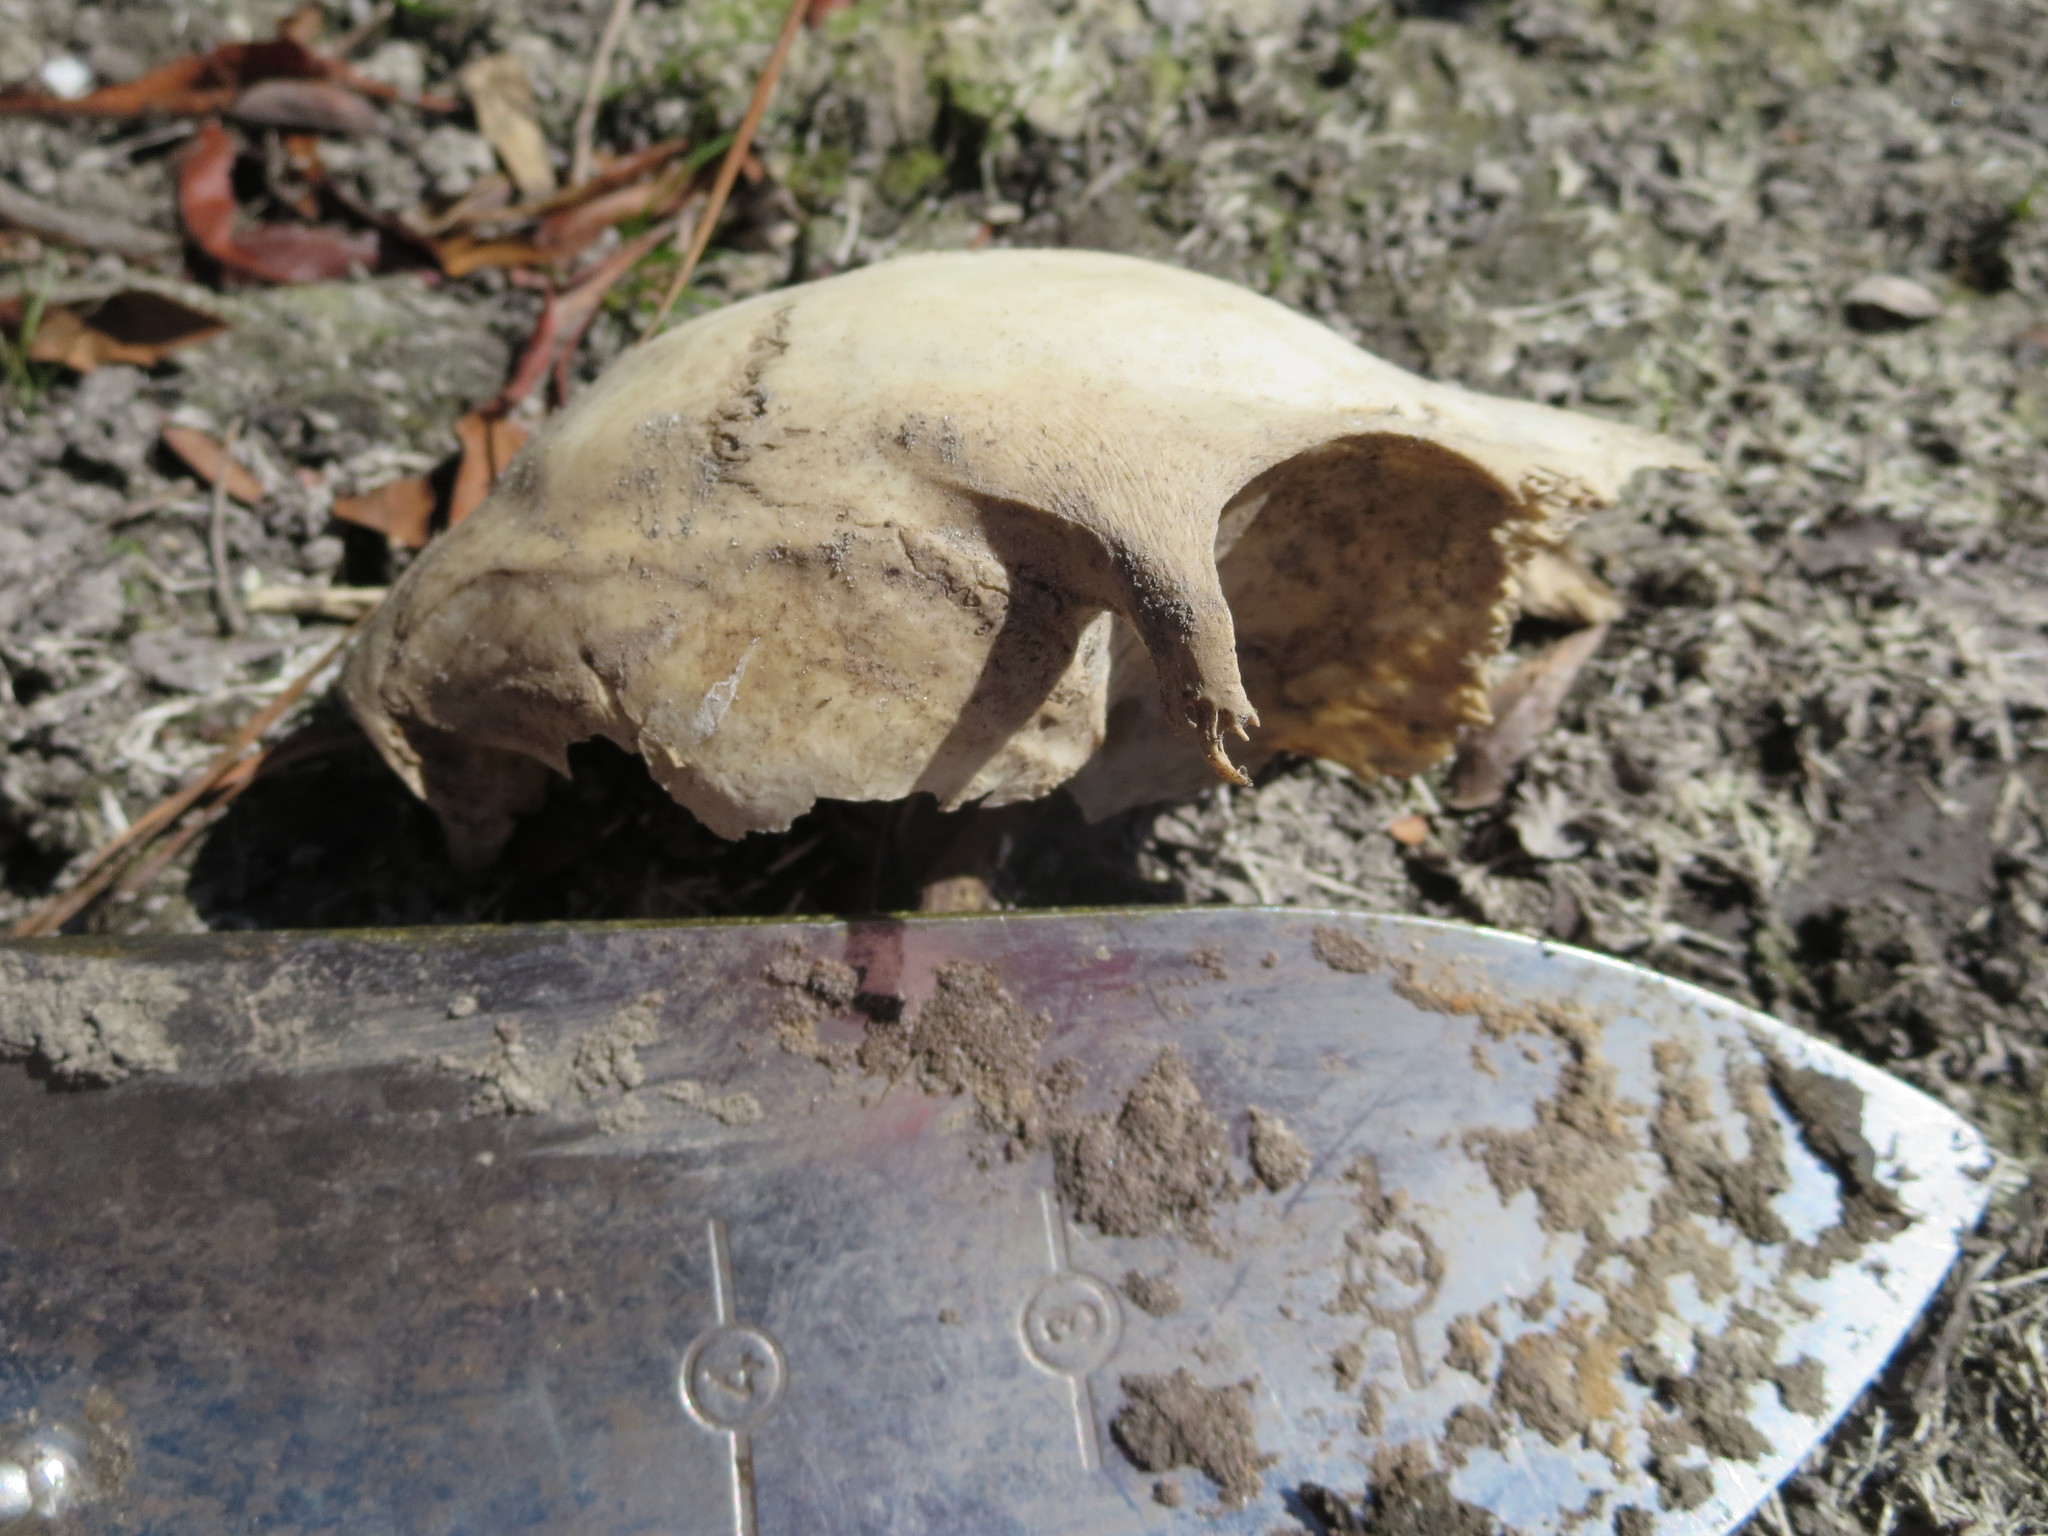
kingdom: Animalia
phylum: Chordata
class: Mammalia
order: Artiodactyla
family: Cervidae
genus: Odocoileus
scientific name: Odocoileus virginianus
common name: White-tailed deer
